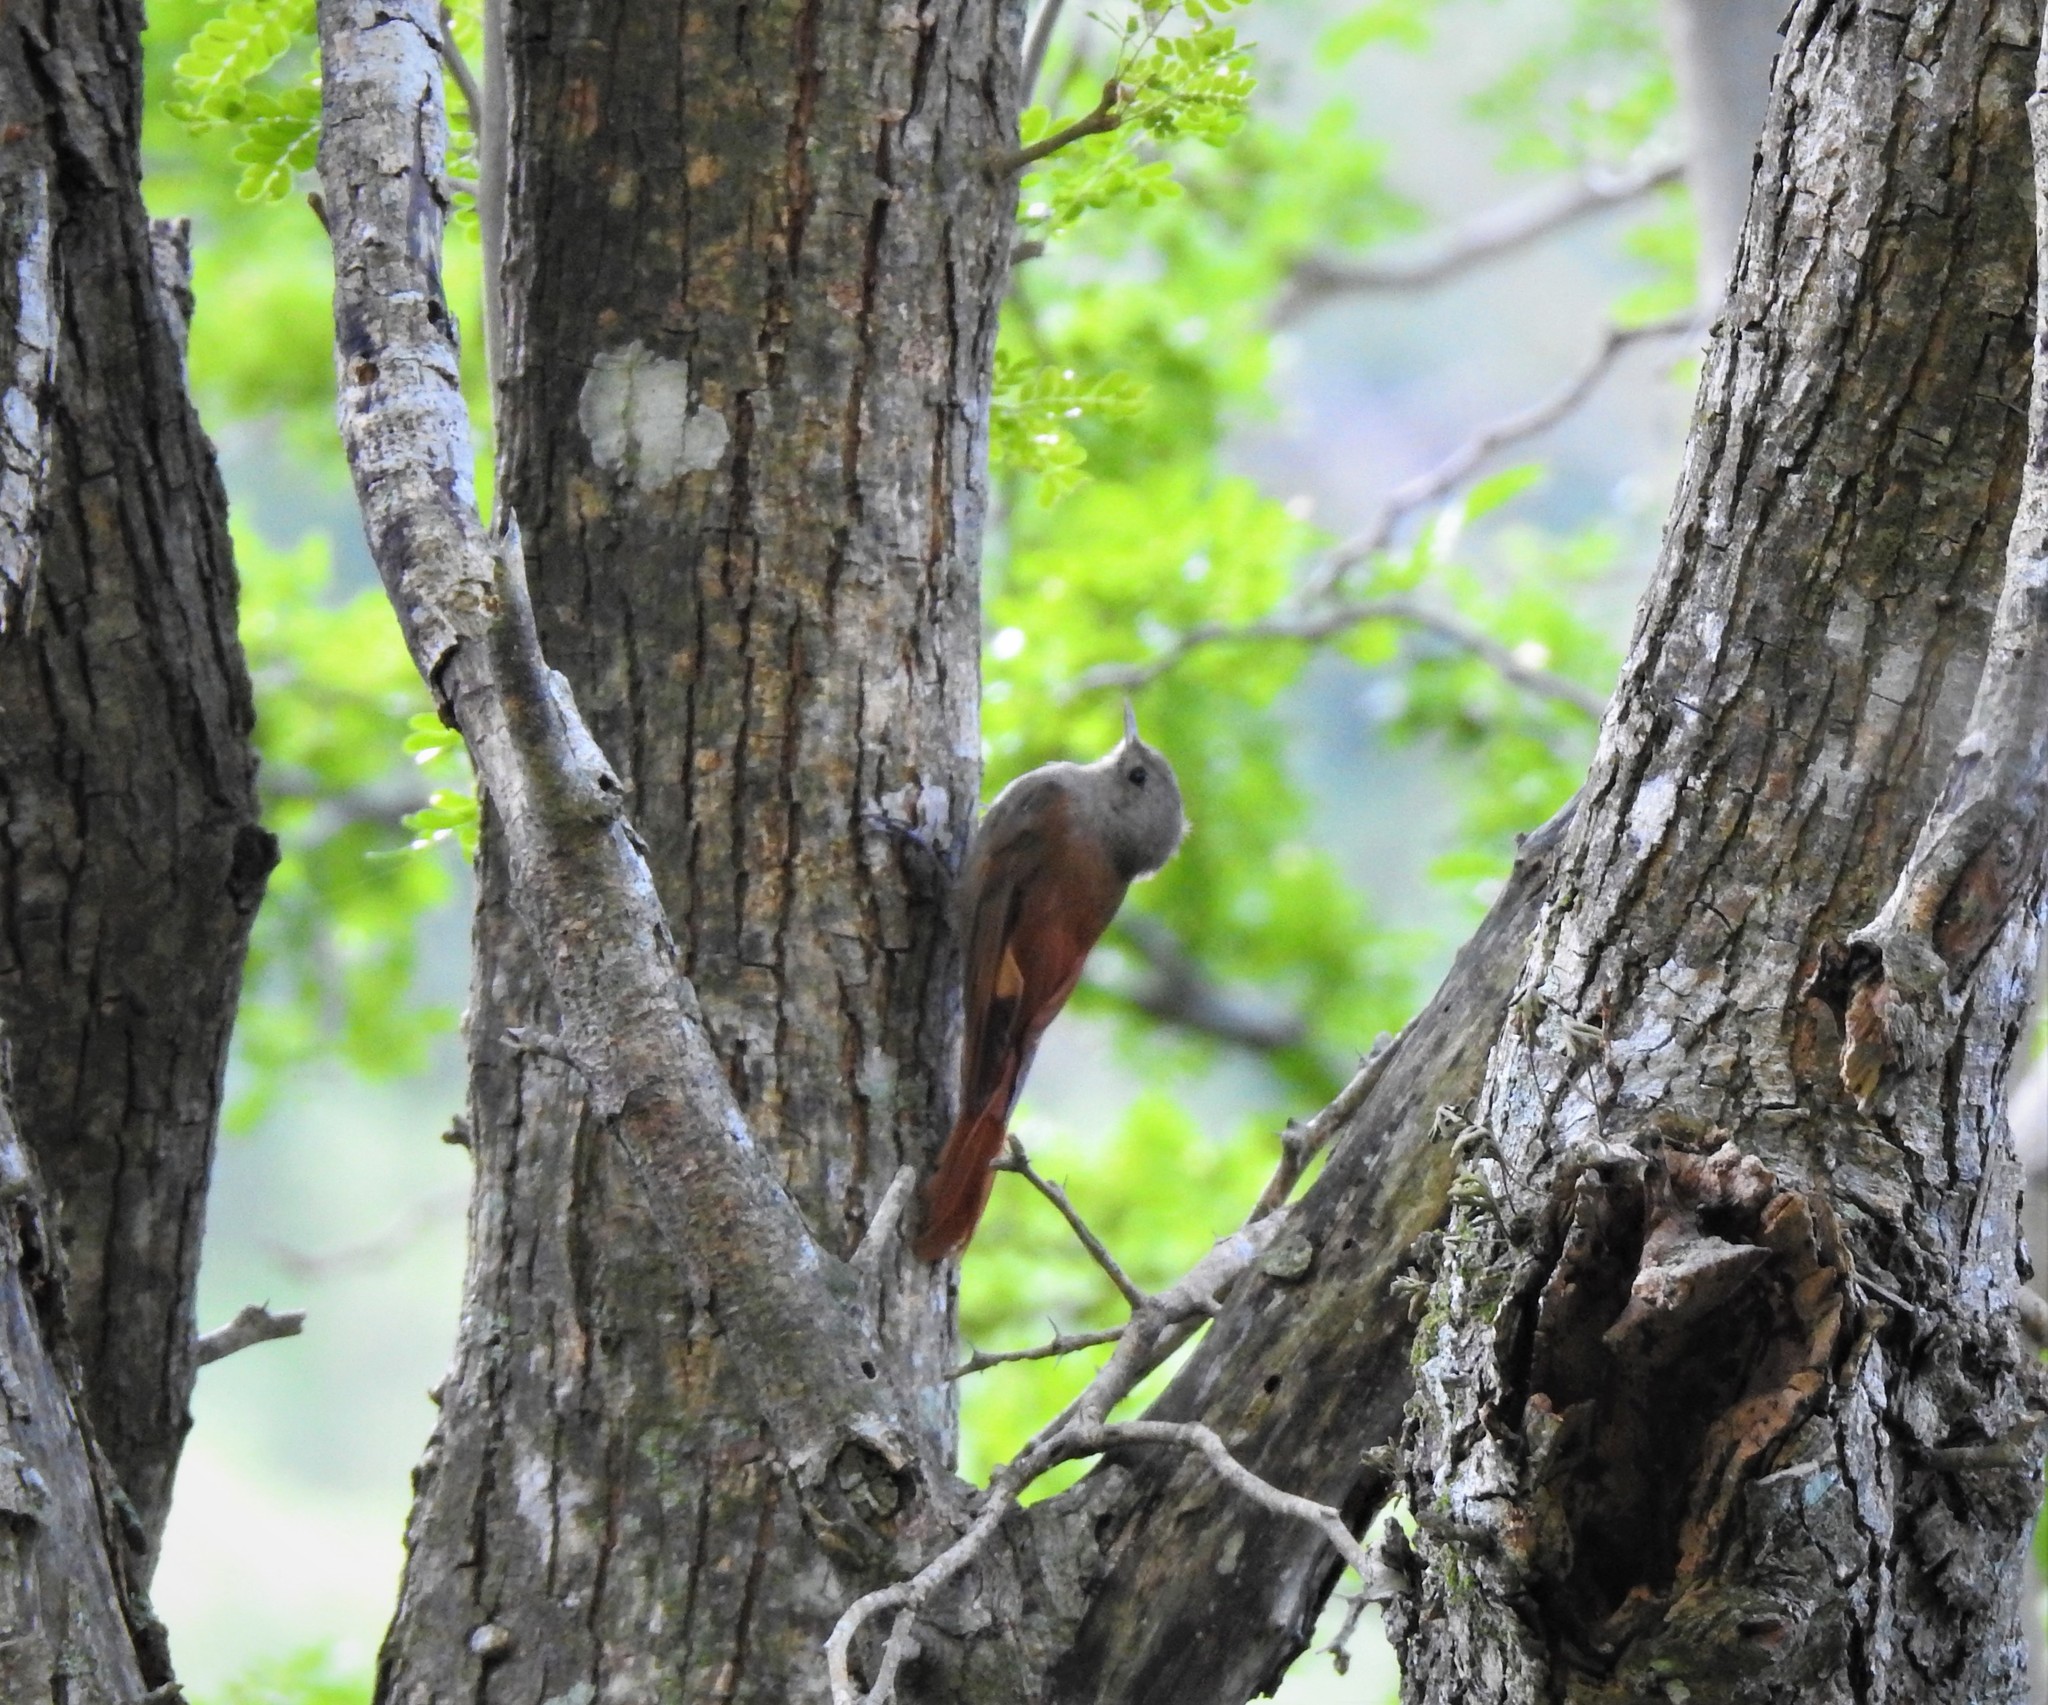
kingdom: Animalia
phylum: Chordata
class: Aves
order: Passeriformes
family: Furnariidae
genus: Sittasomus
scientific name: Sittasomus griseicapillus
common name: Olivaceous woodcreeper
